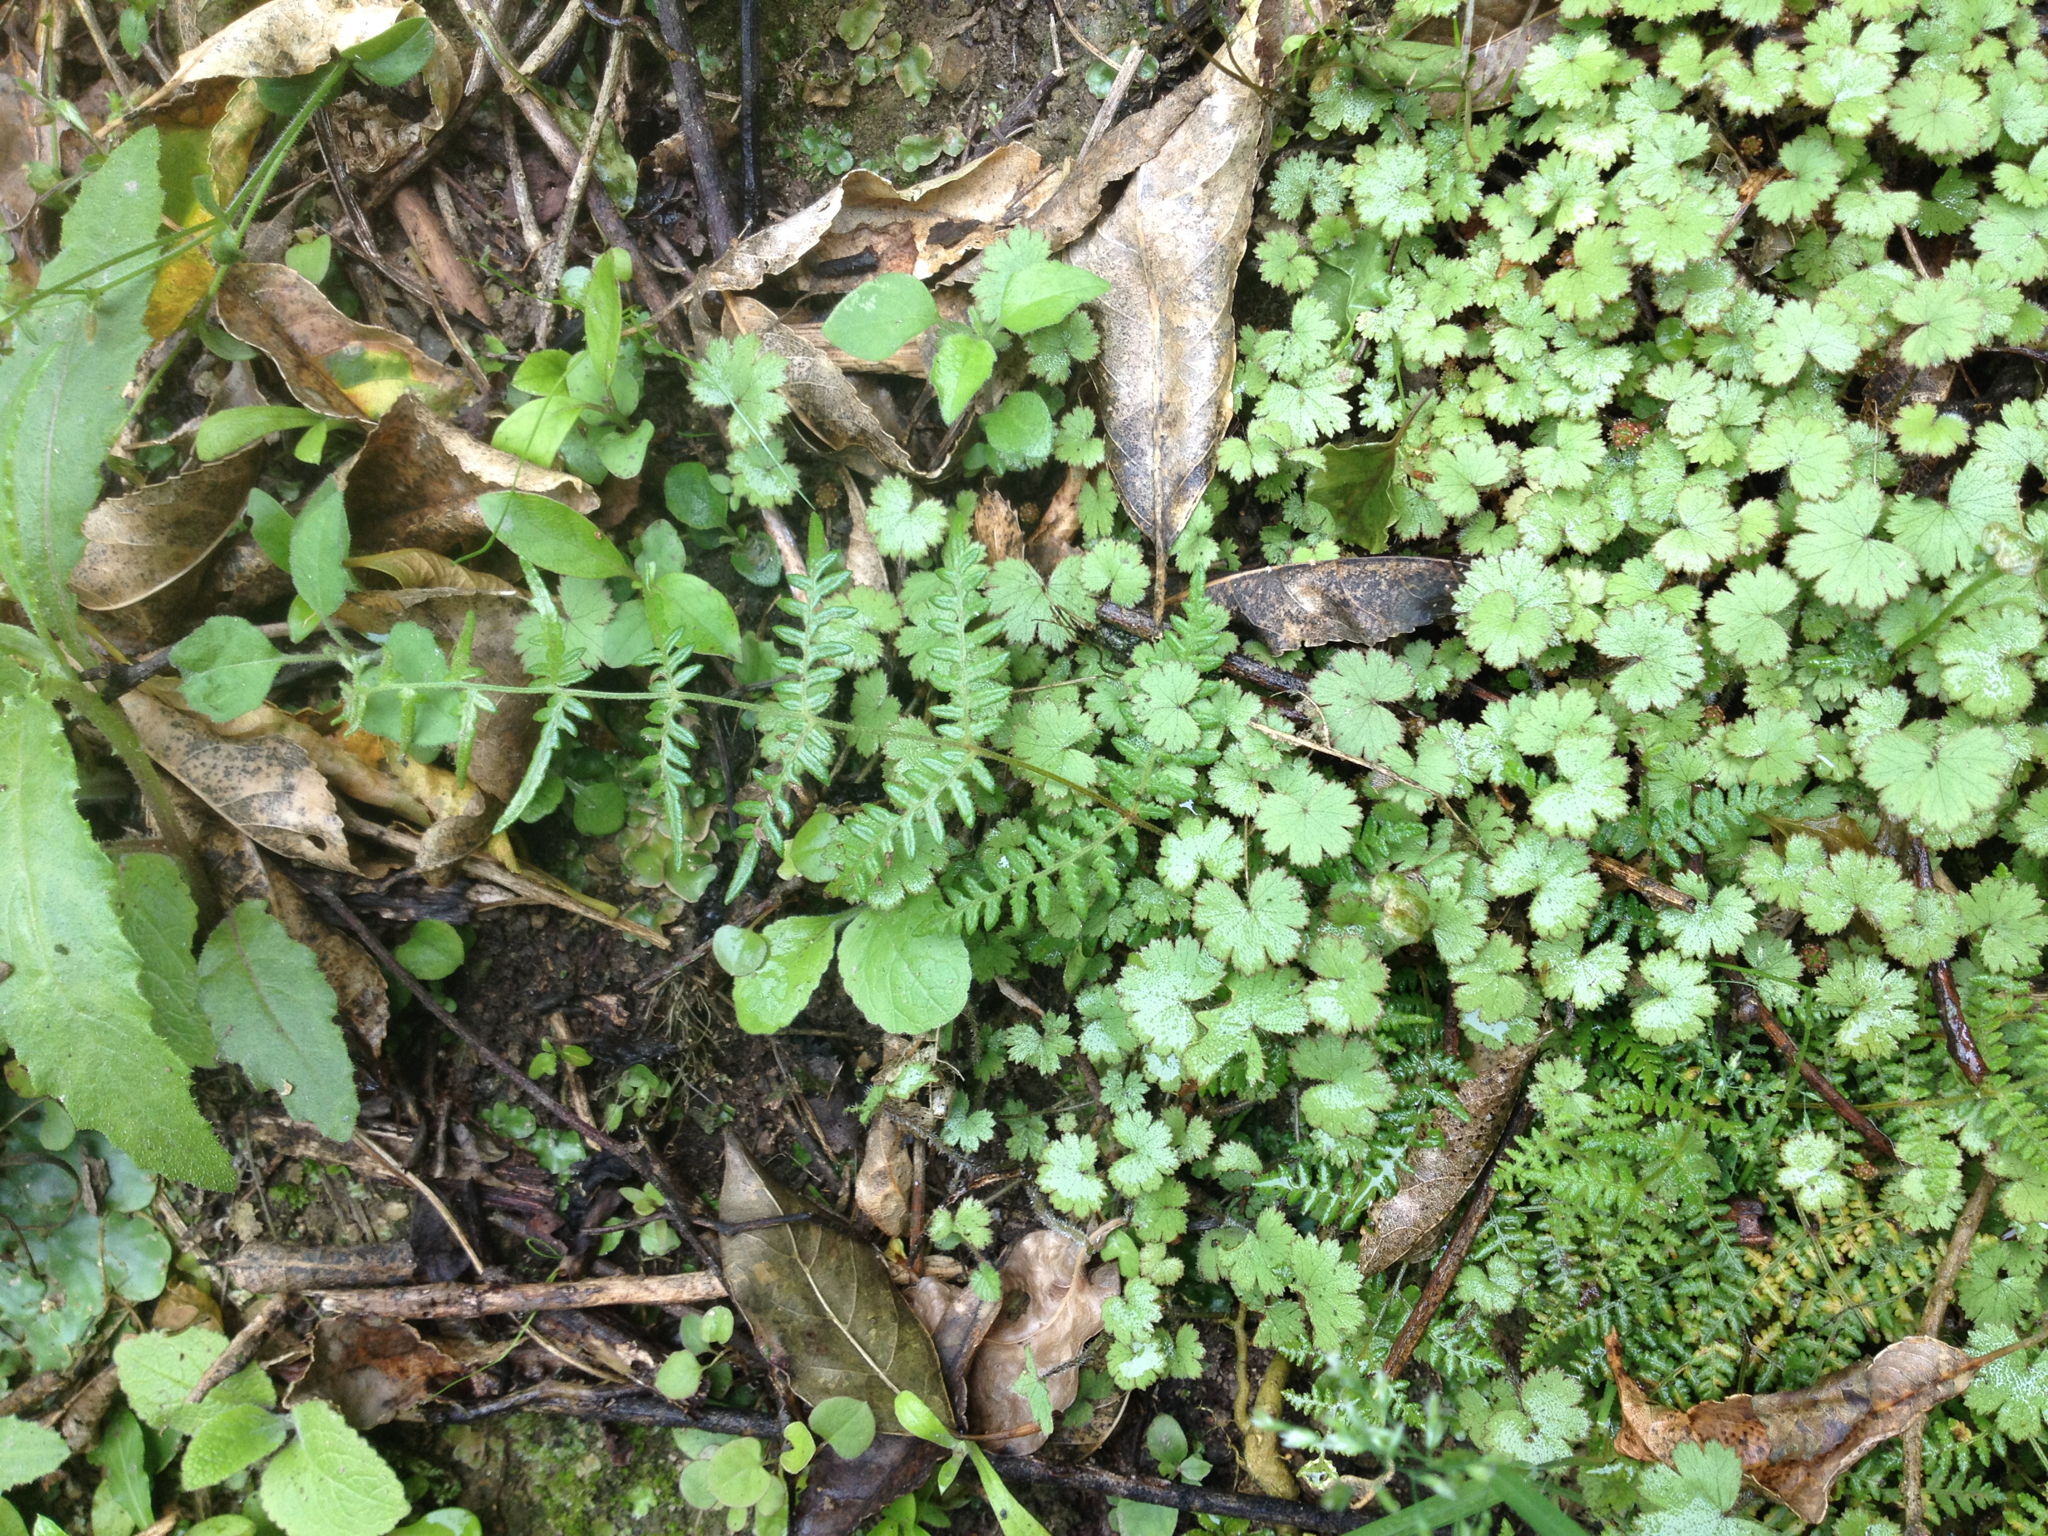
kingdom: Plantae
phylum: Tracheophyta
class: Polypodiopsida
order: Polypodiales
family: Dennstaedtiaceae
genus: Pteridium
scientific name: Pteridium esculentum
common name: Bracken fern
